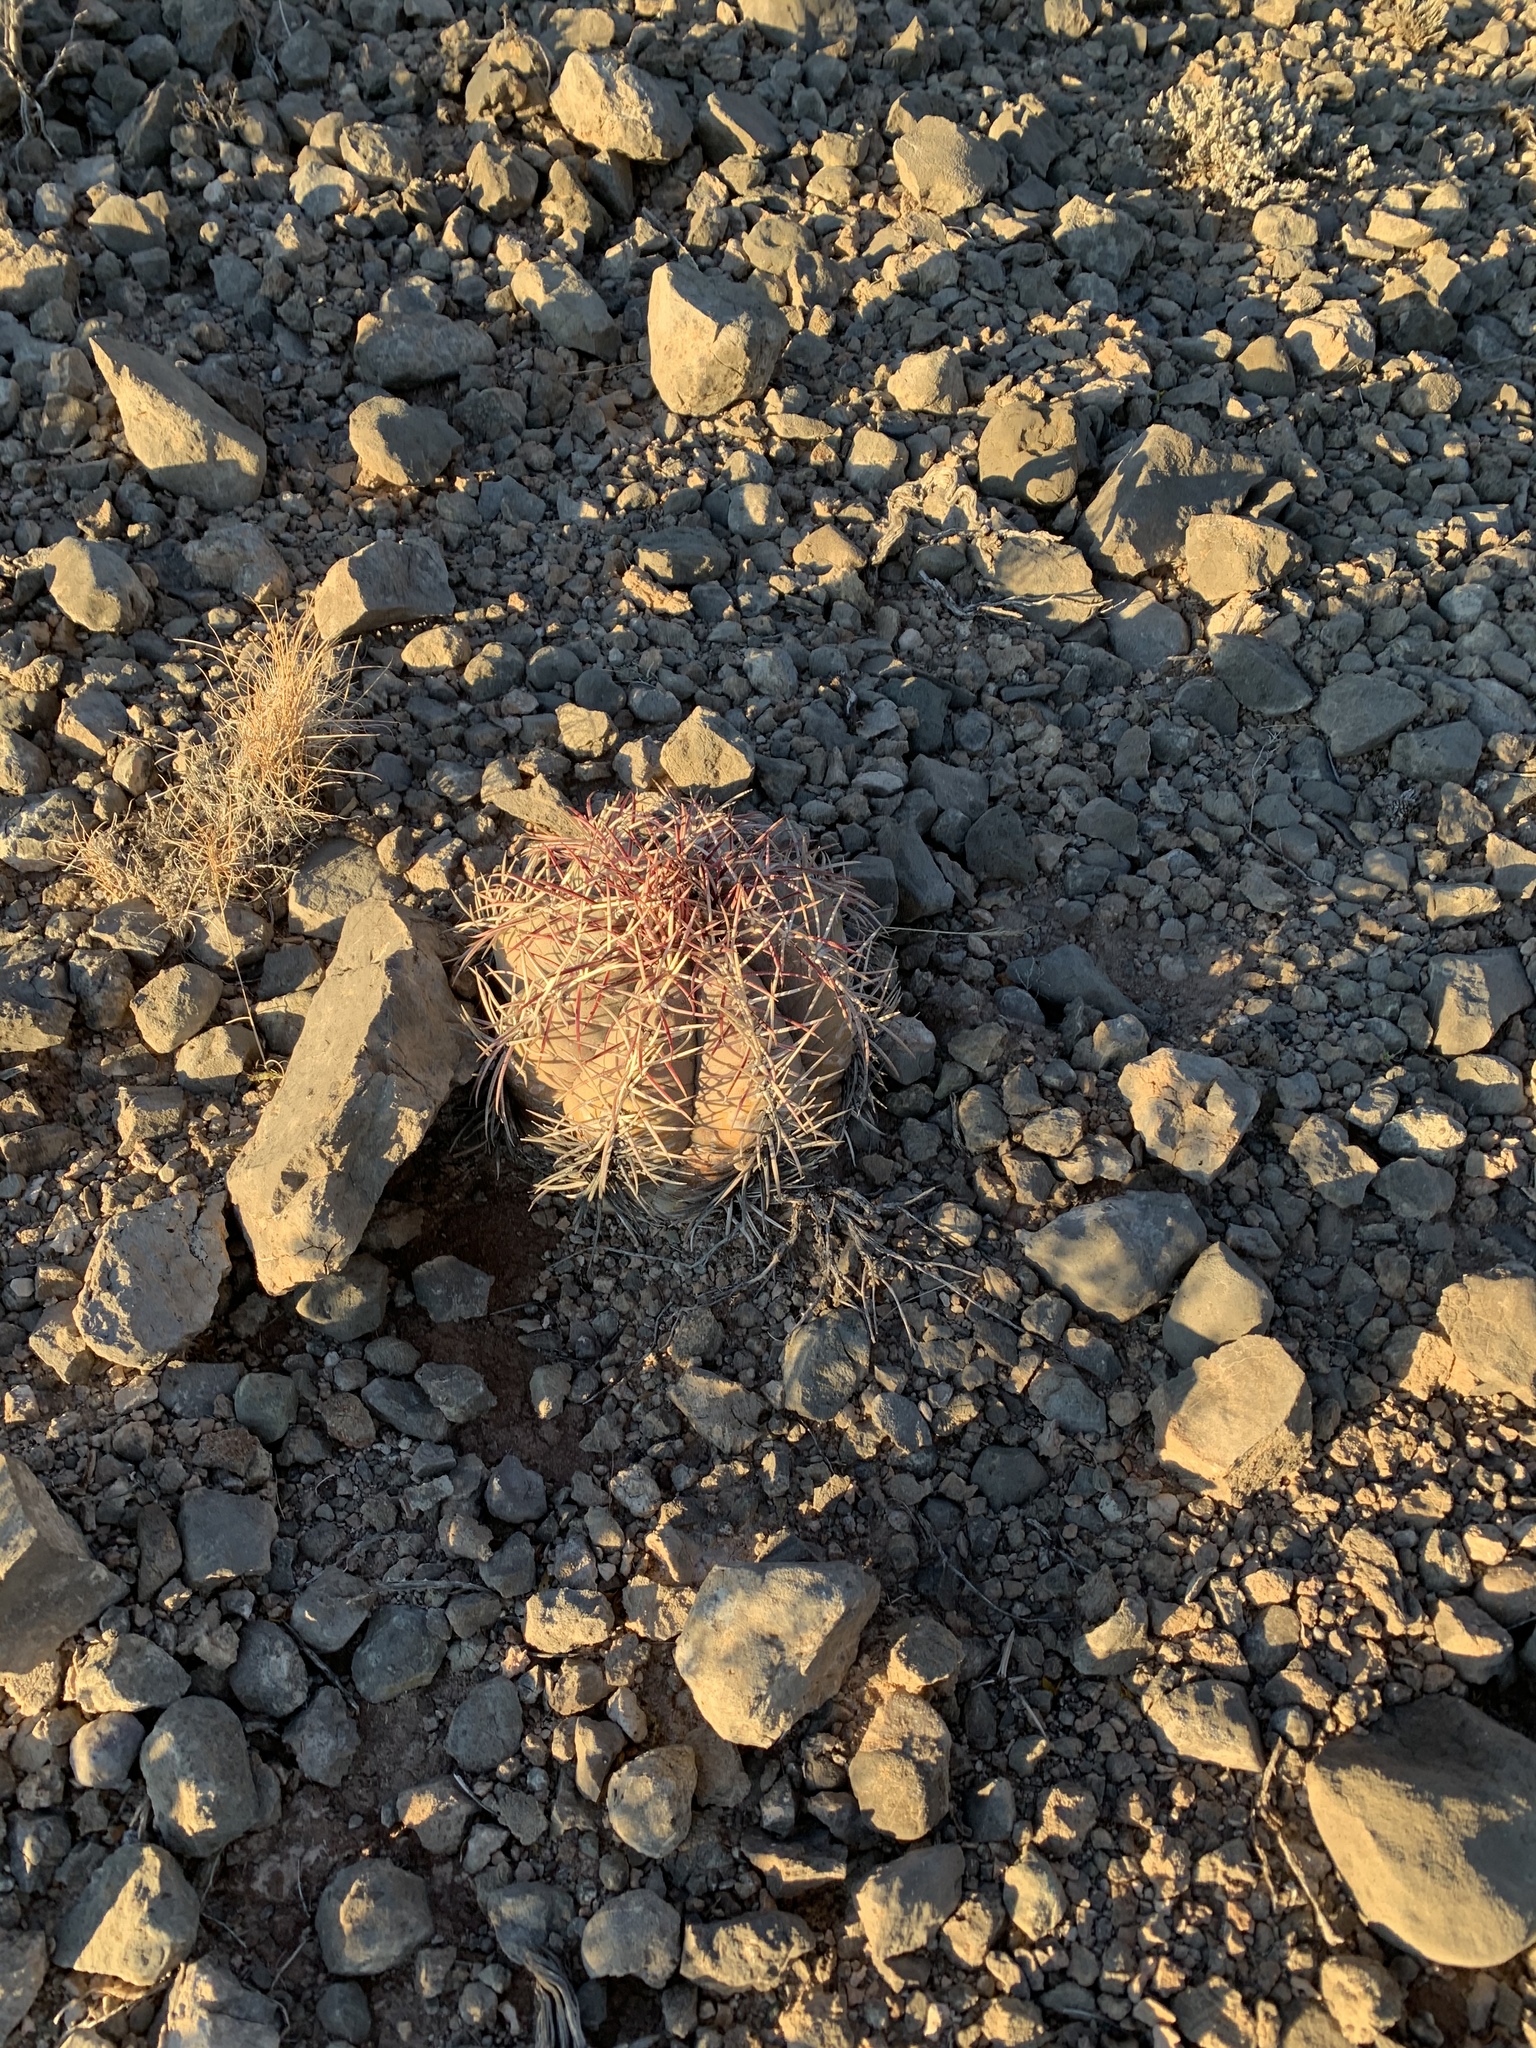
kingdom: Plantae
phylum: Tracheophyta
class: Magnoliopsida
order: Caryophyllales
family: Cactaceae
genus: Echinocactus
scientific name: Echinocactus horizonthalonius
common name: Devilshead
